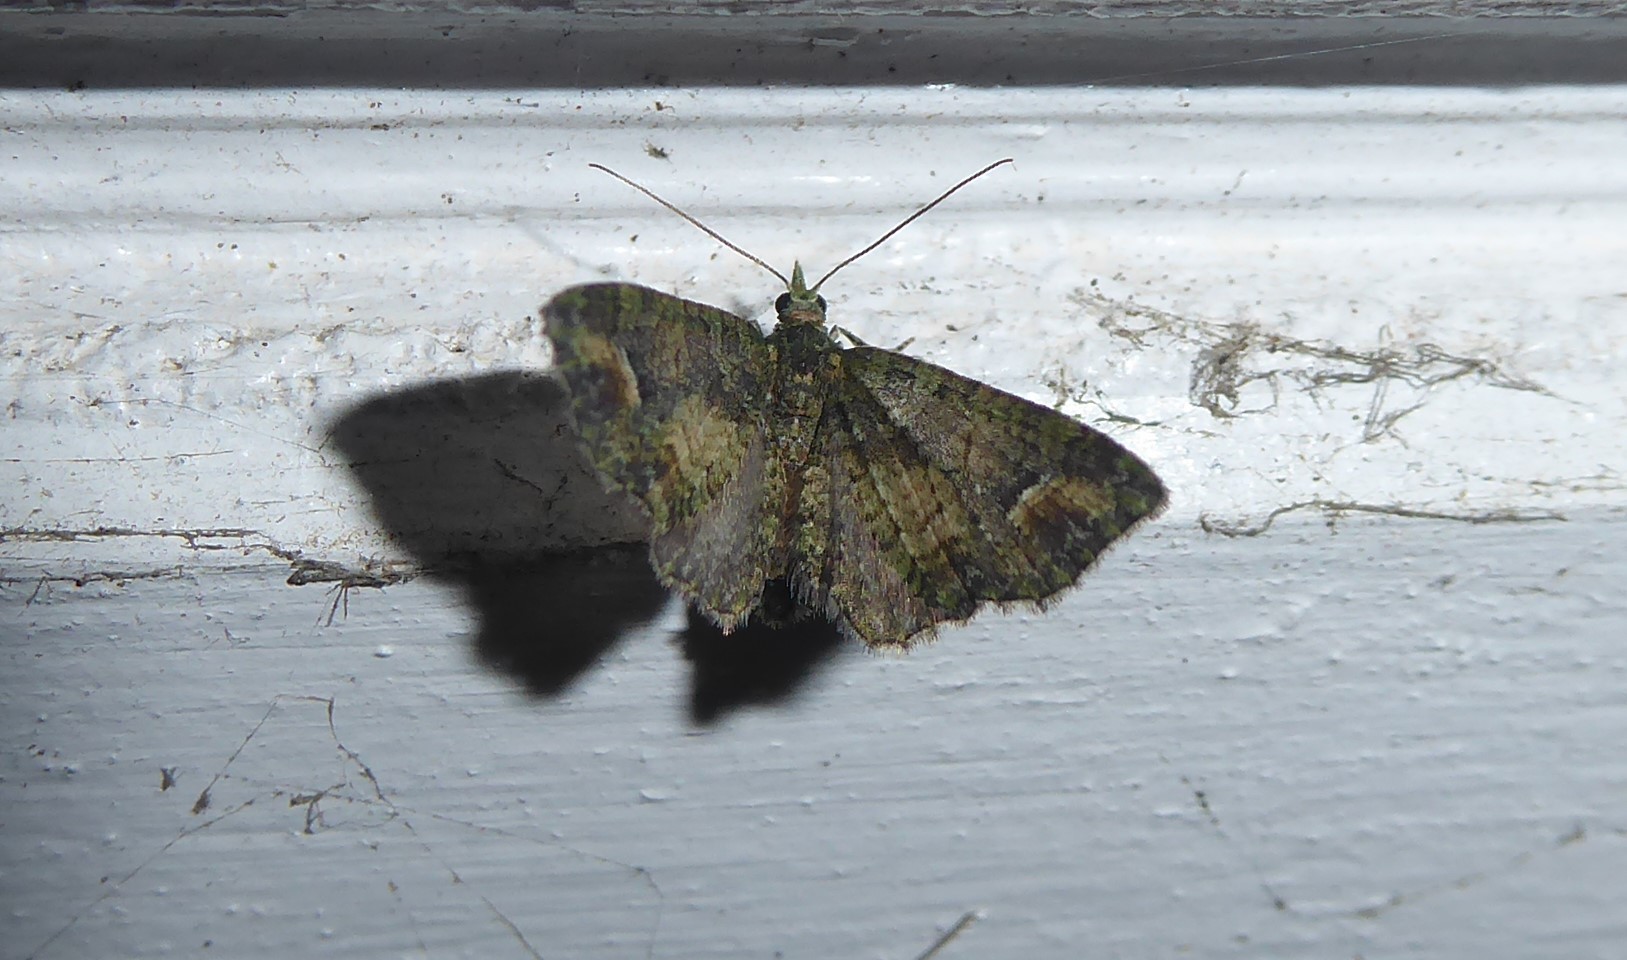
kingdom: Animalia
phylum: Arthropoda
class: Insecta
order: Lepidoptera
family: Geometridae
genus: Idaea
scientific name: Idaea mutanda
